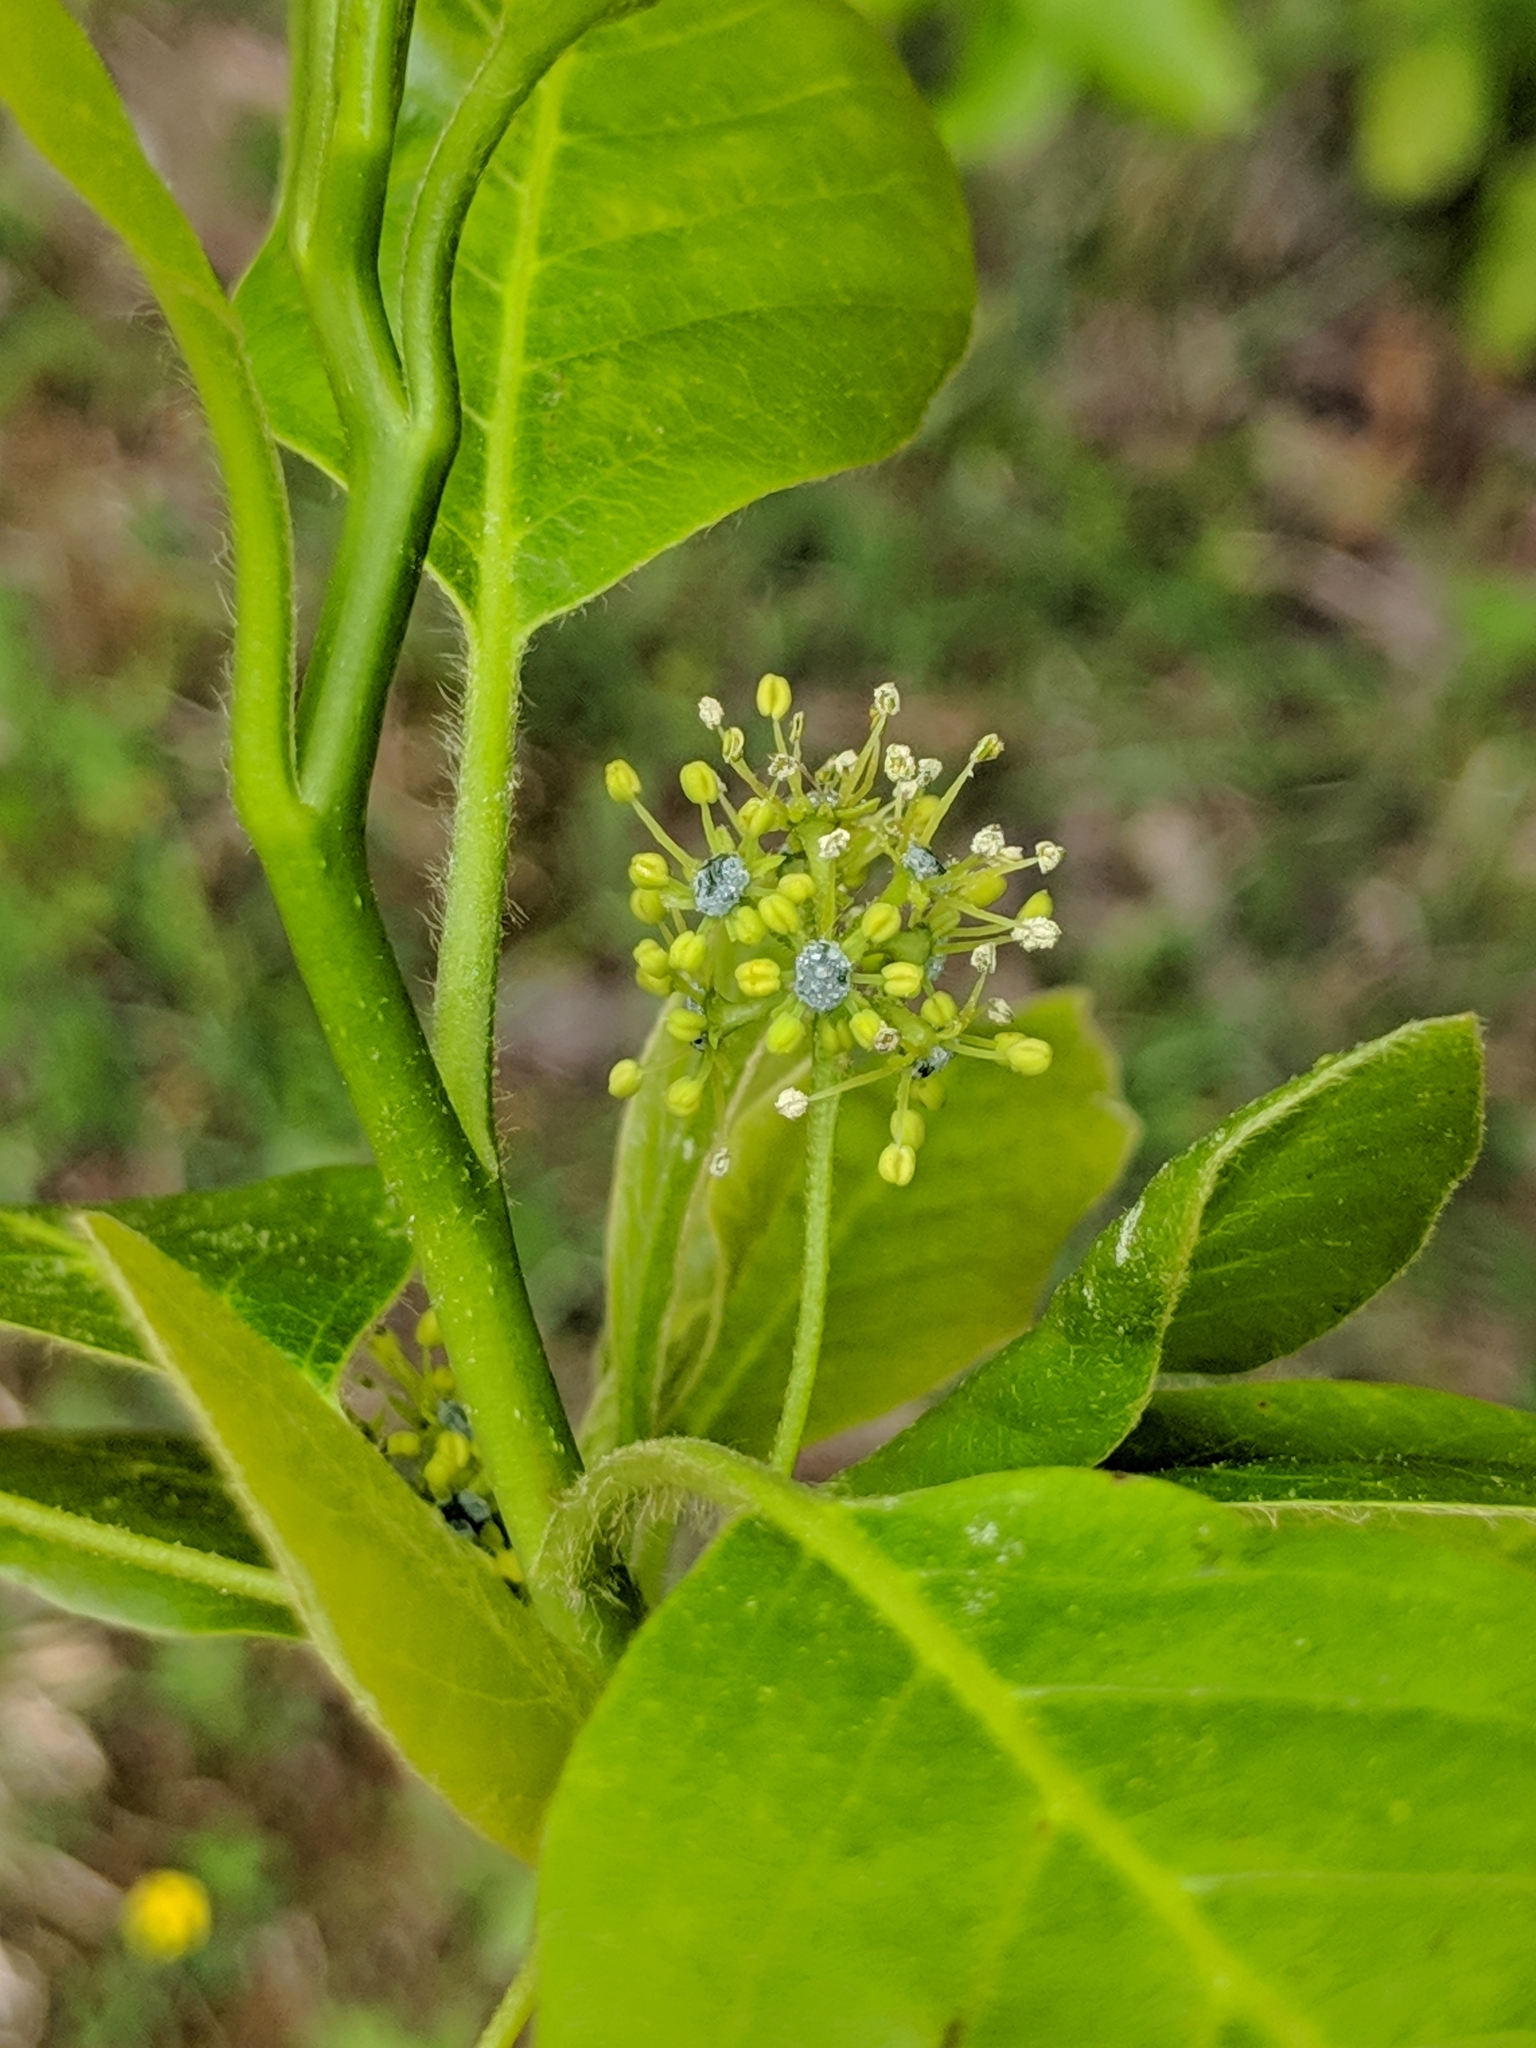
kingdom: Plantae
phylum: Tracheophyta
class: Magnoliopsida
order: Cornales
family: Nyssaceae
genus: Nyssa
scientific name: Nyssa sylvatica
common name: Black tupelo
